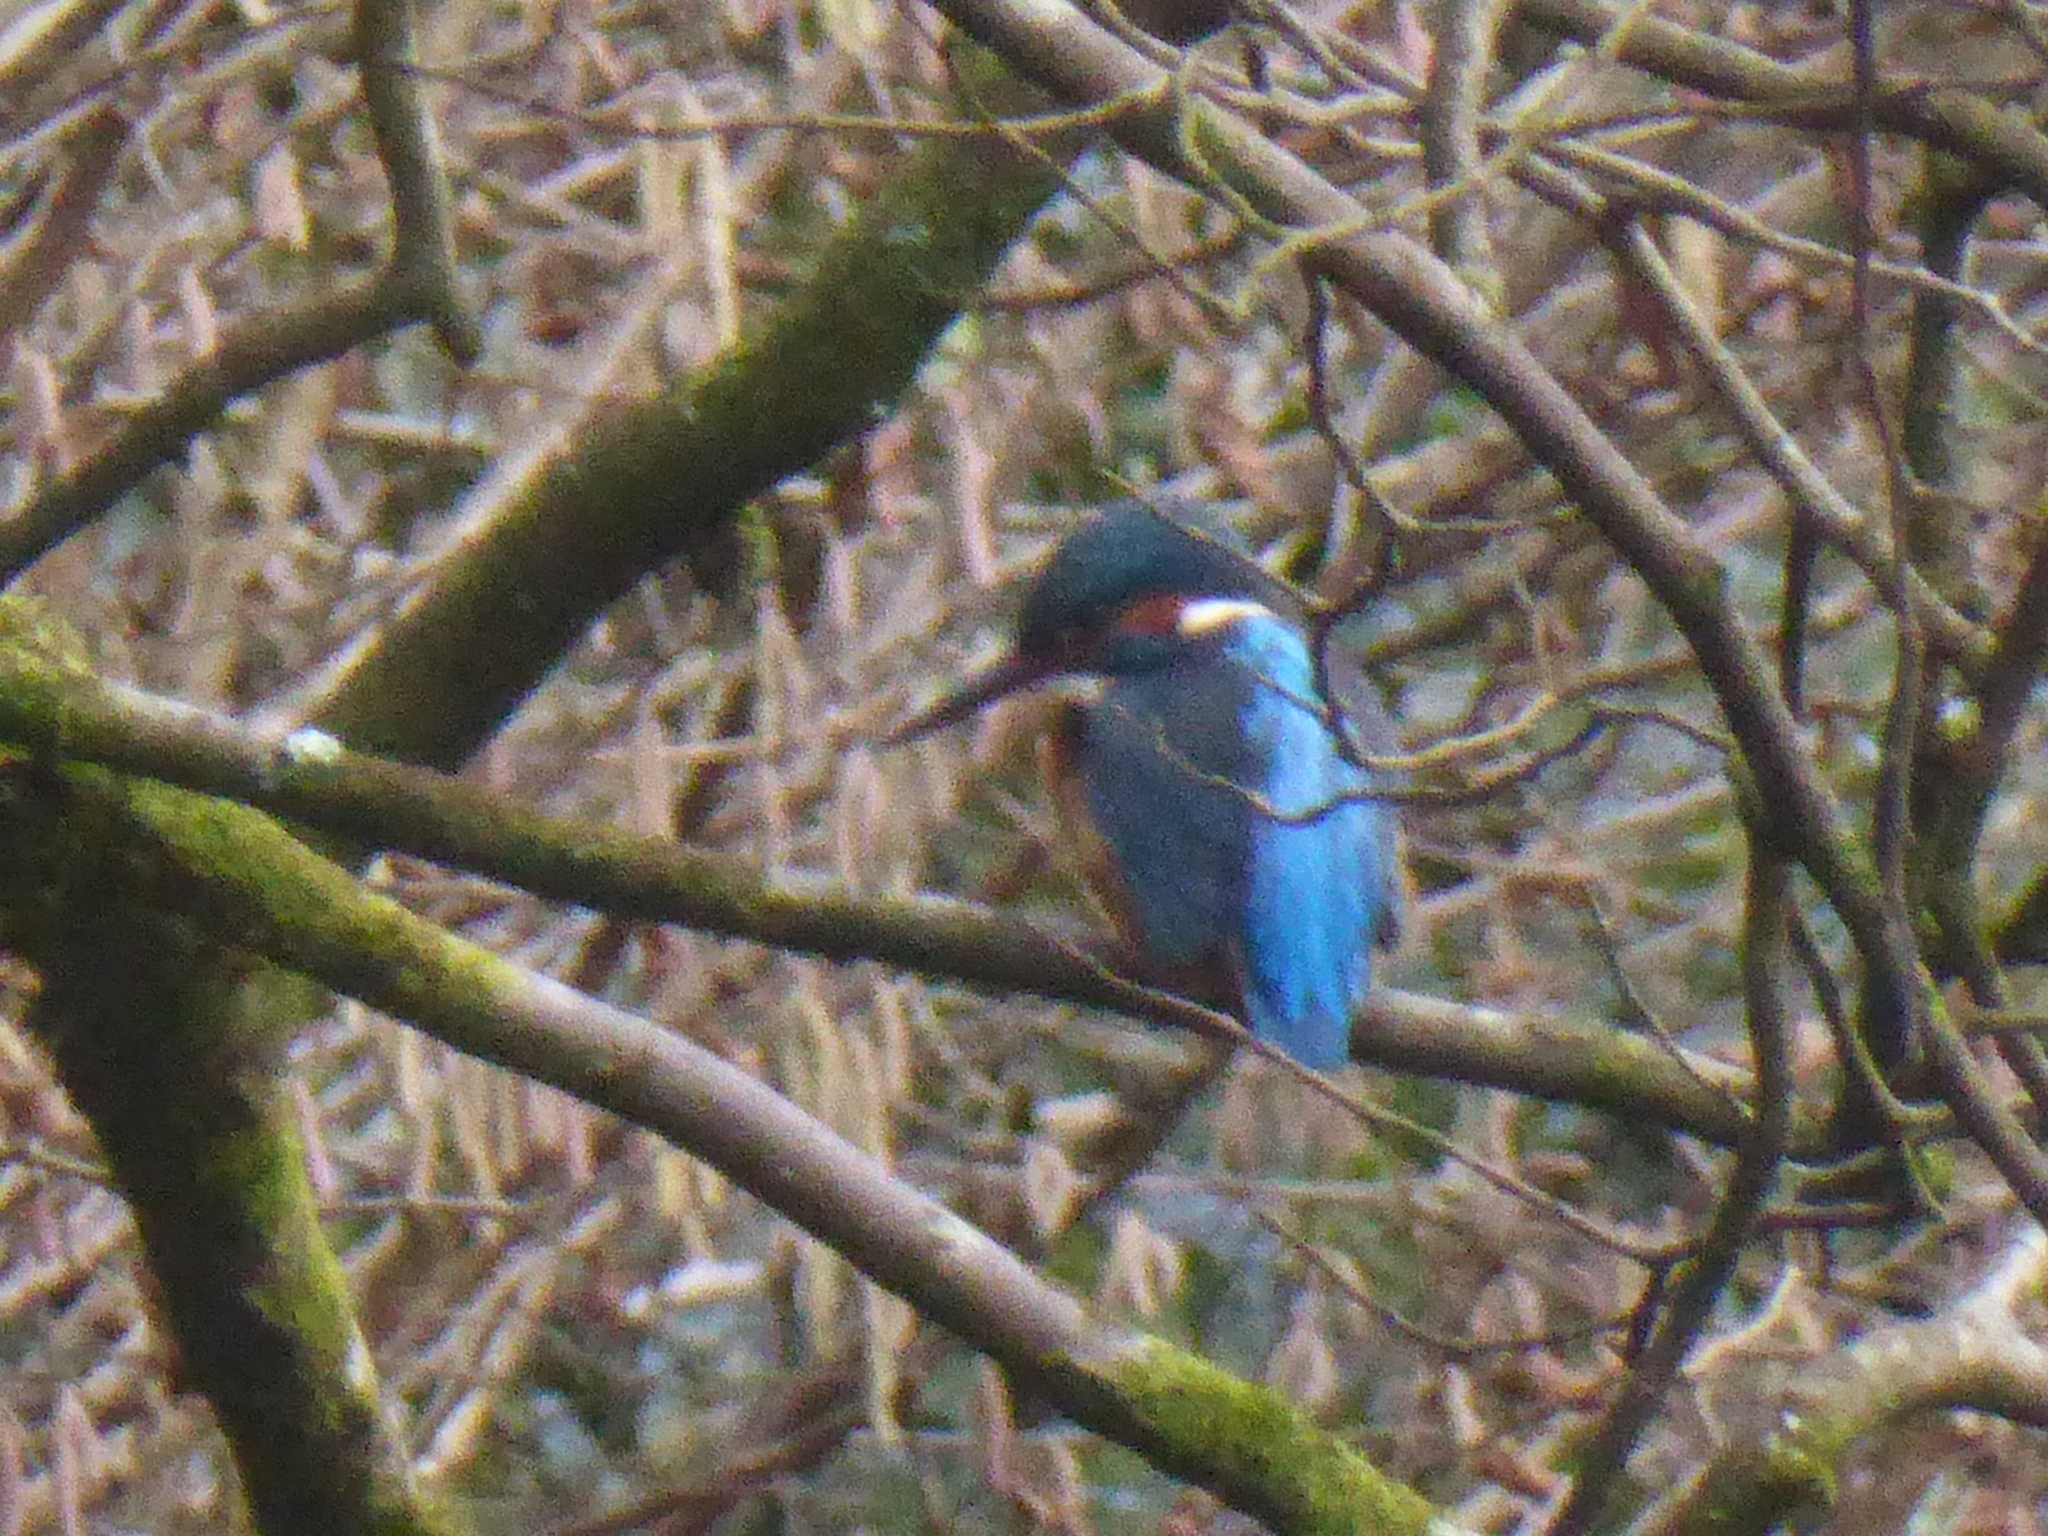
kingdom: Animalia
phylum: Chordata
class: Aves
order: Coraciiformes
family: Alcedinidae
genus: Alcedo
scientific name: Alcedo atthis
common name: Common kingfisher
